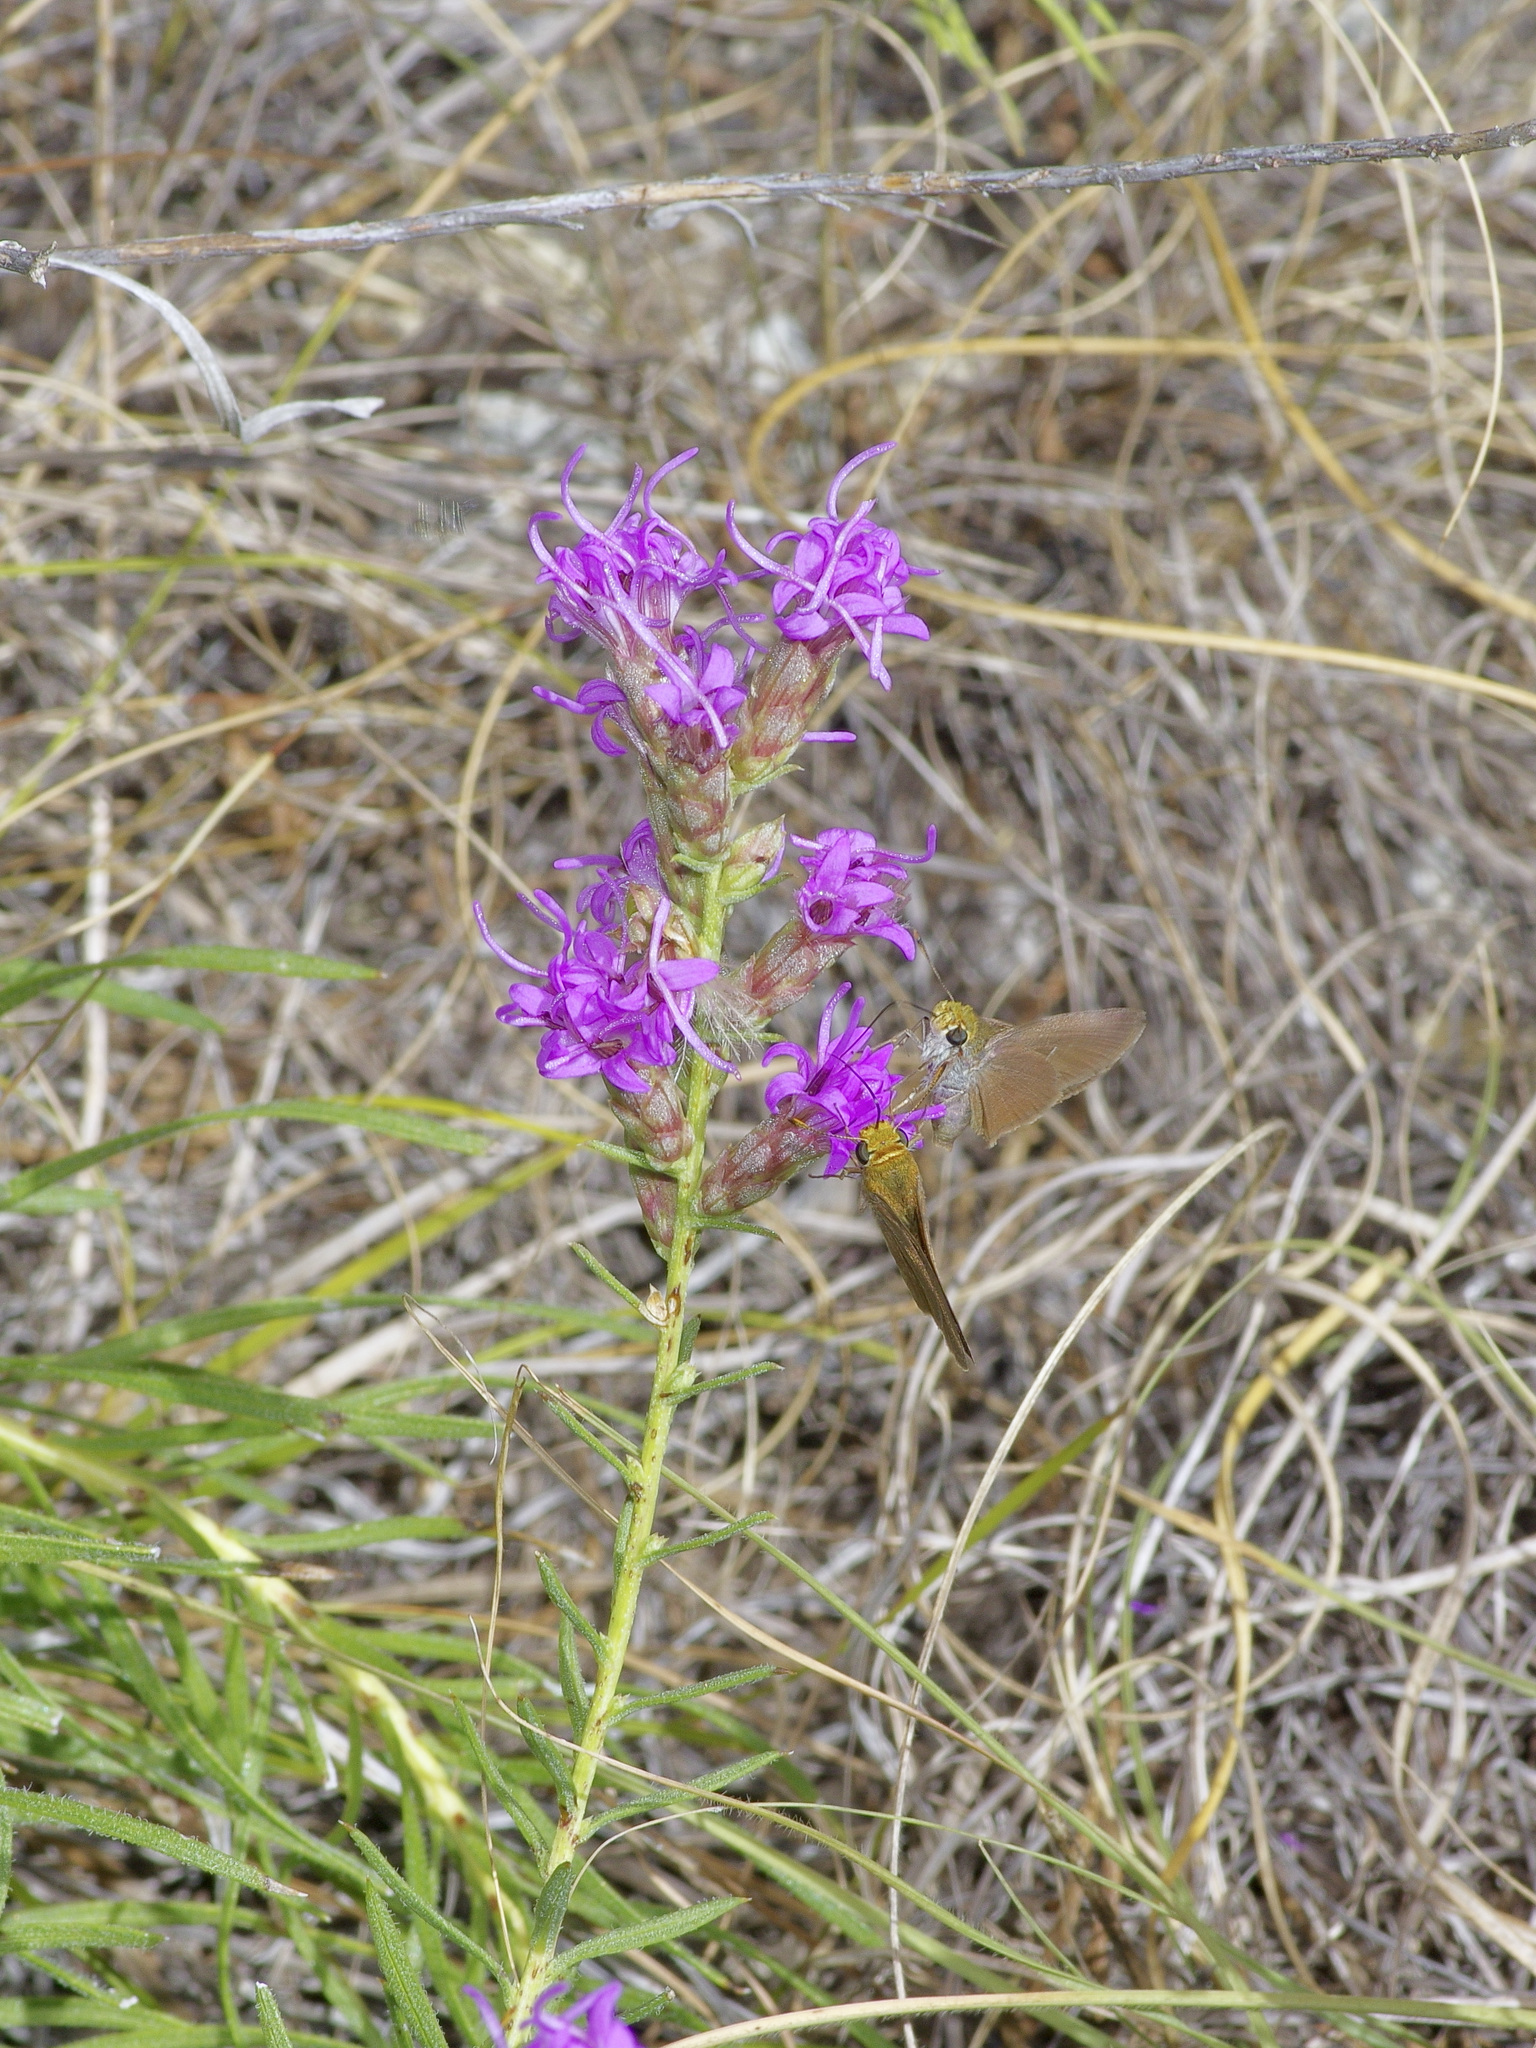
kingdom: Animalia
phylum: Arthropoda
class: Insecta
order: Lepidoptera
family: Hesperiidae
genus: Euphyes
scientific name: Euphyes vestris
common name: Dun skipper
